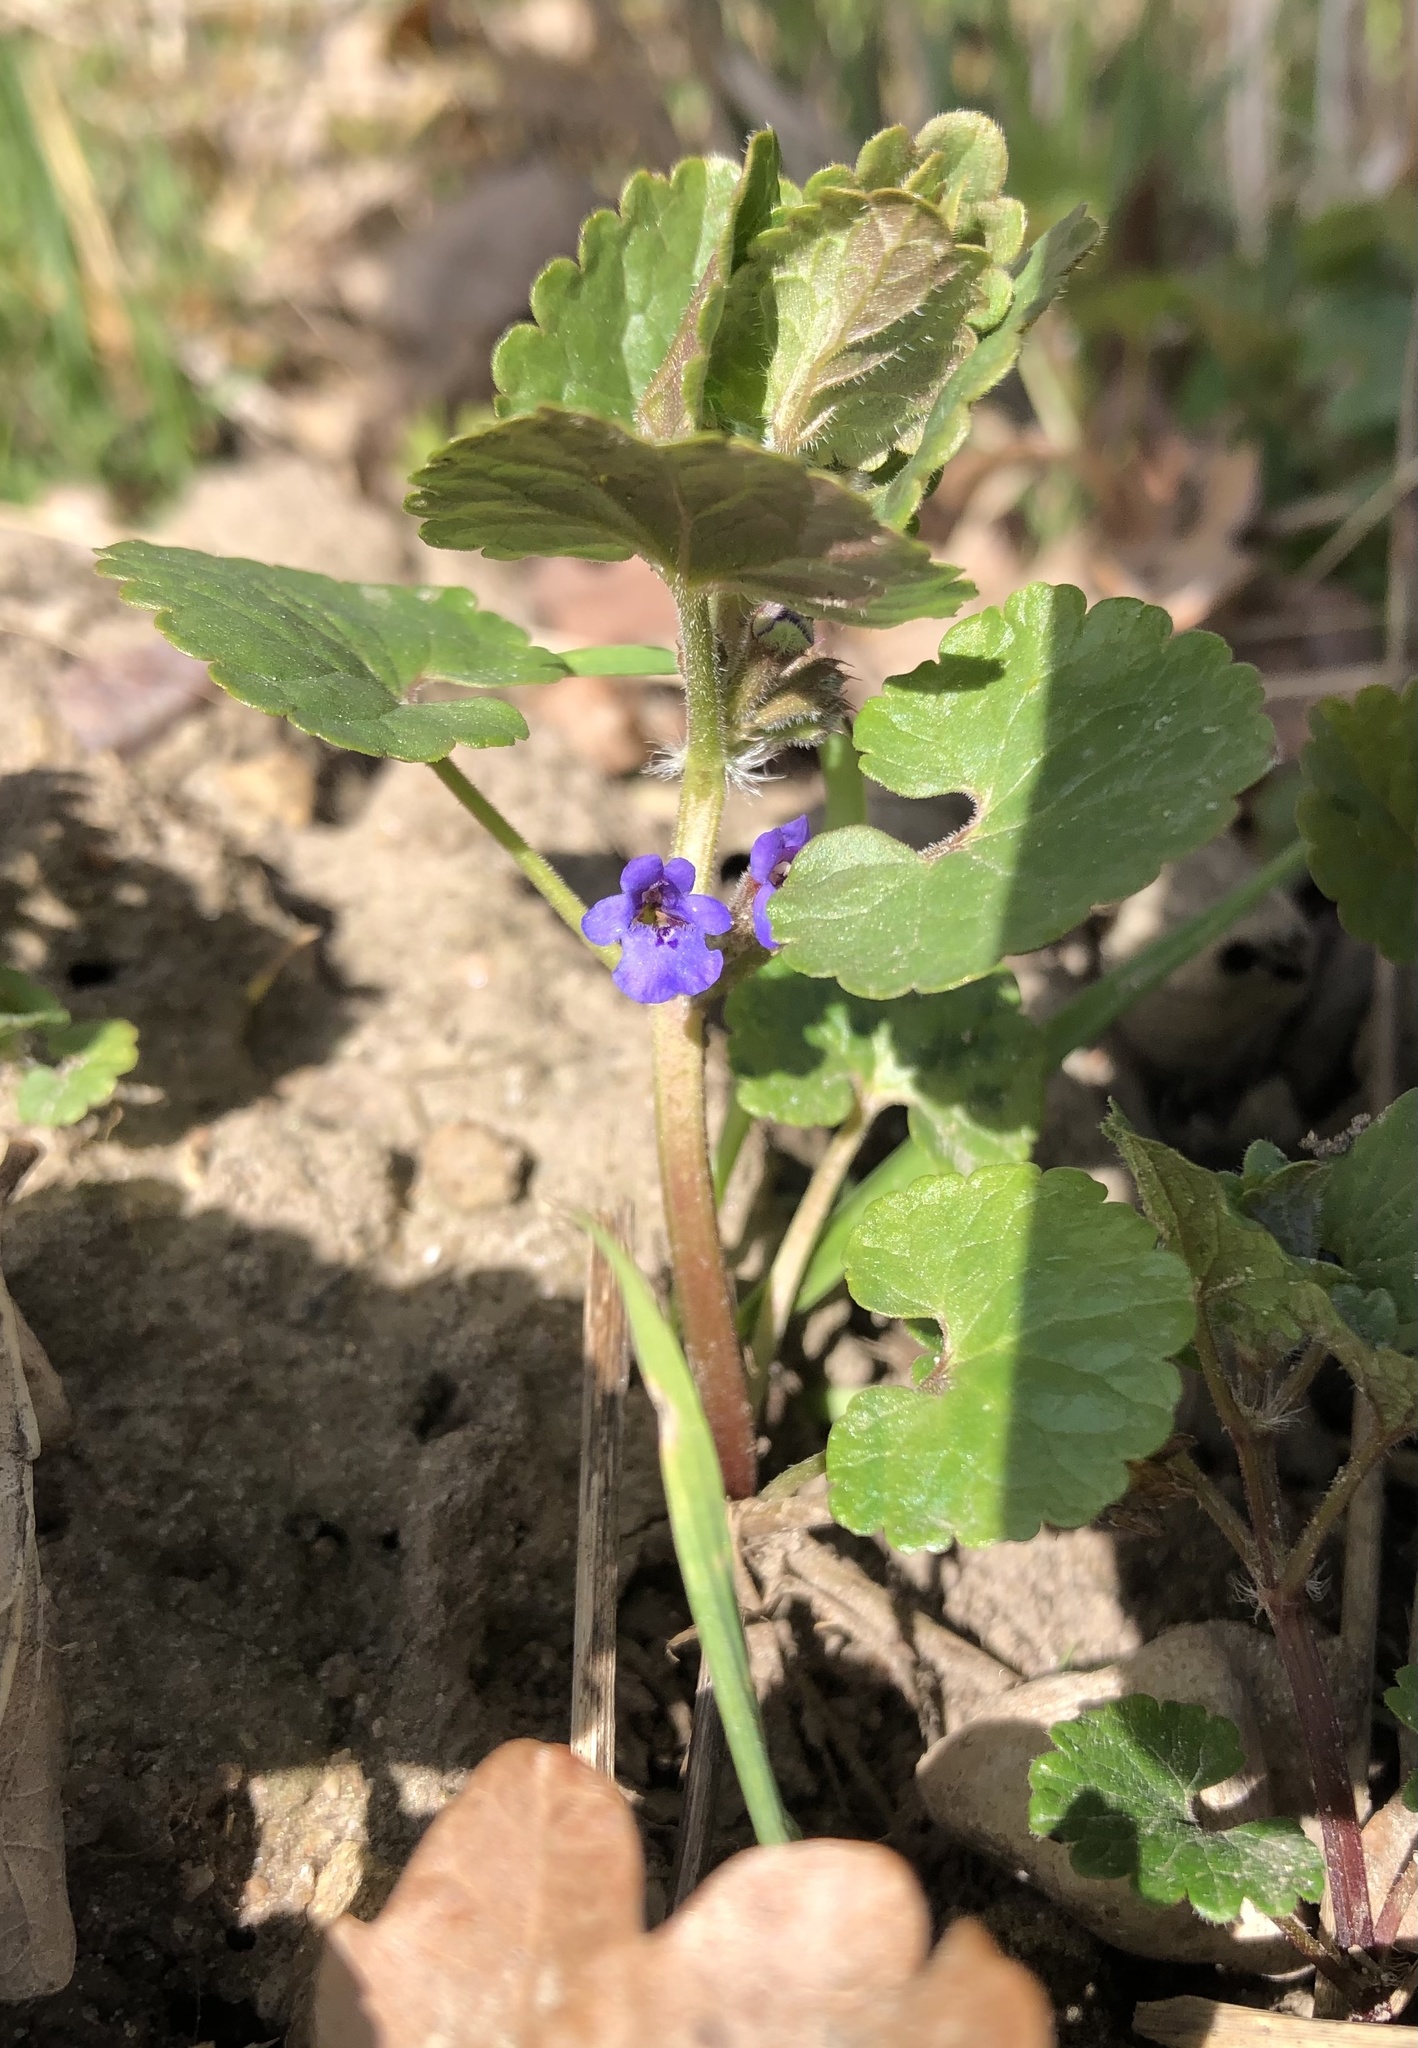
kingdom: Plantae
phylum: Tracheophyta
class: Magnoliopsida
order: Lamiales
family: Lamiaceae
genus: Glechoma
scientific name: Glechoma hederacea
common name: Ground ivy
